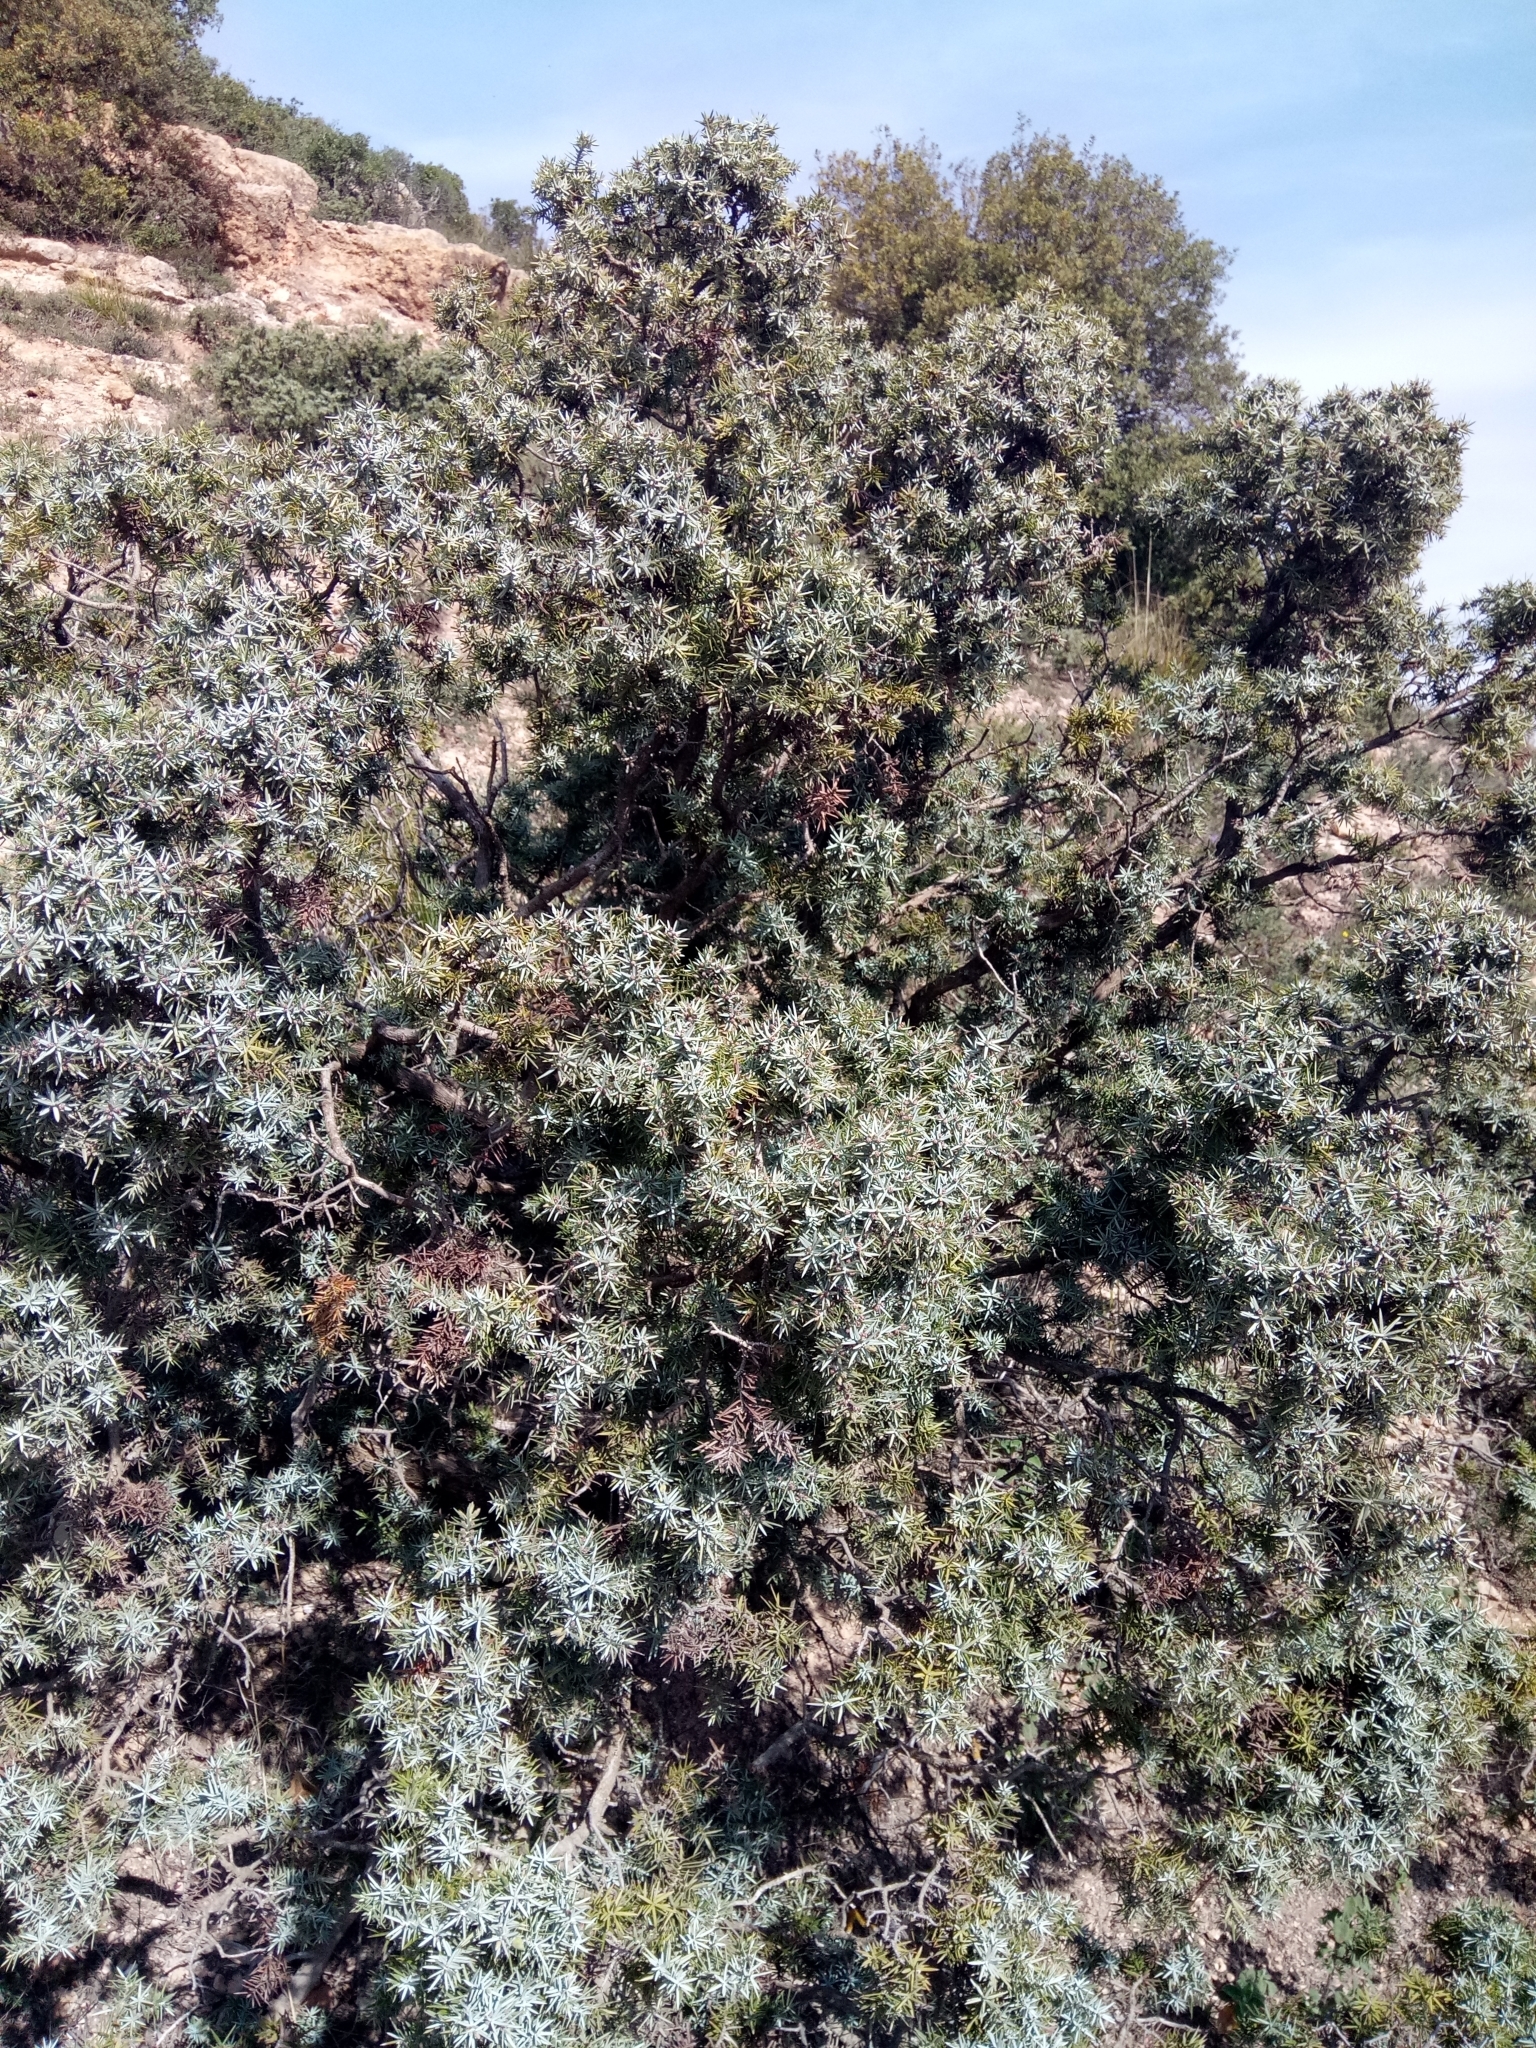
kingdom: Plantae
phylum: Tracheophyta
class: Pinopsida
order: Pinales
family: Cupressaceae
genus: Juniperus
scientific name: Juniperus oxycedrus
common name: Prickly juniper
